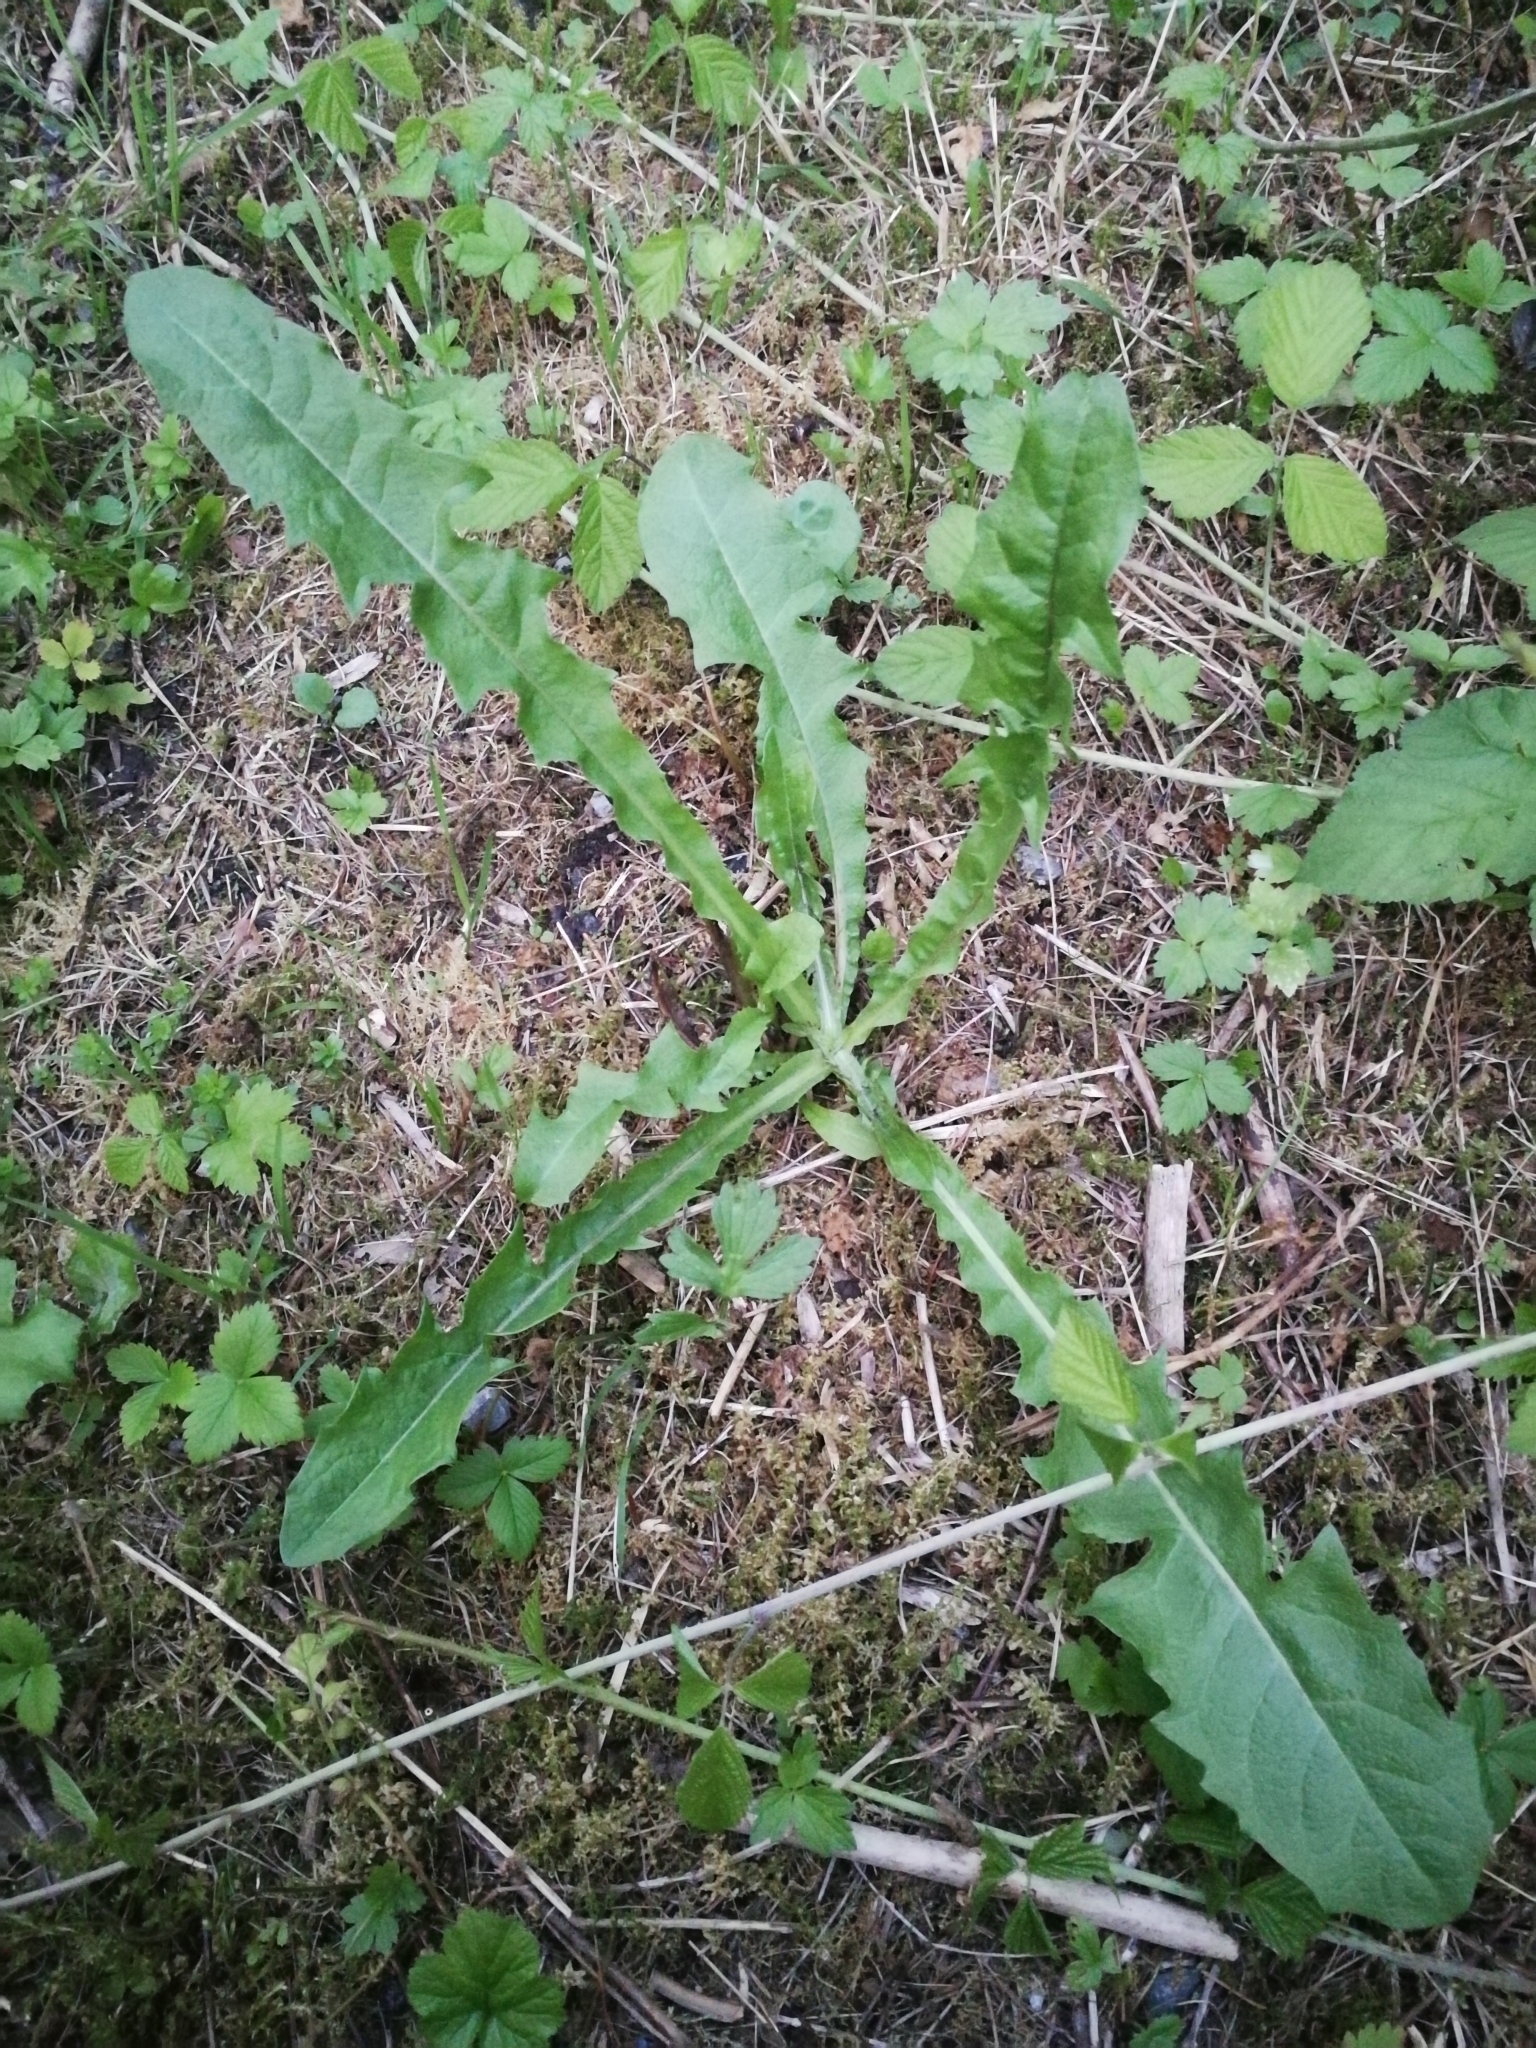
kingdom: Plantae
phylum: Tracheophyta
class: Magnoliopsida
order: Asterales
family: Asteraceae
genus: Taraxacum
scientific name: Taraxacum officinale
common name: Common dandelion
